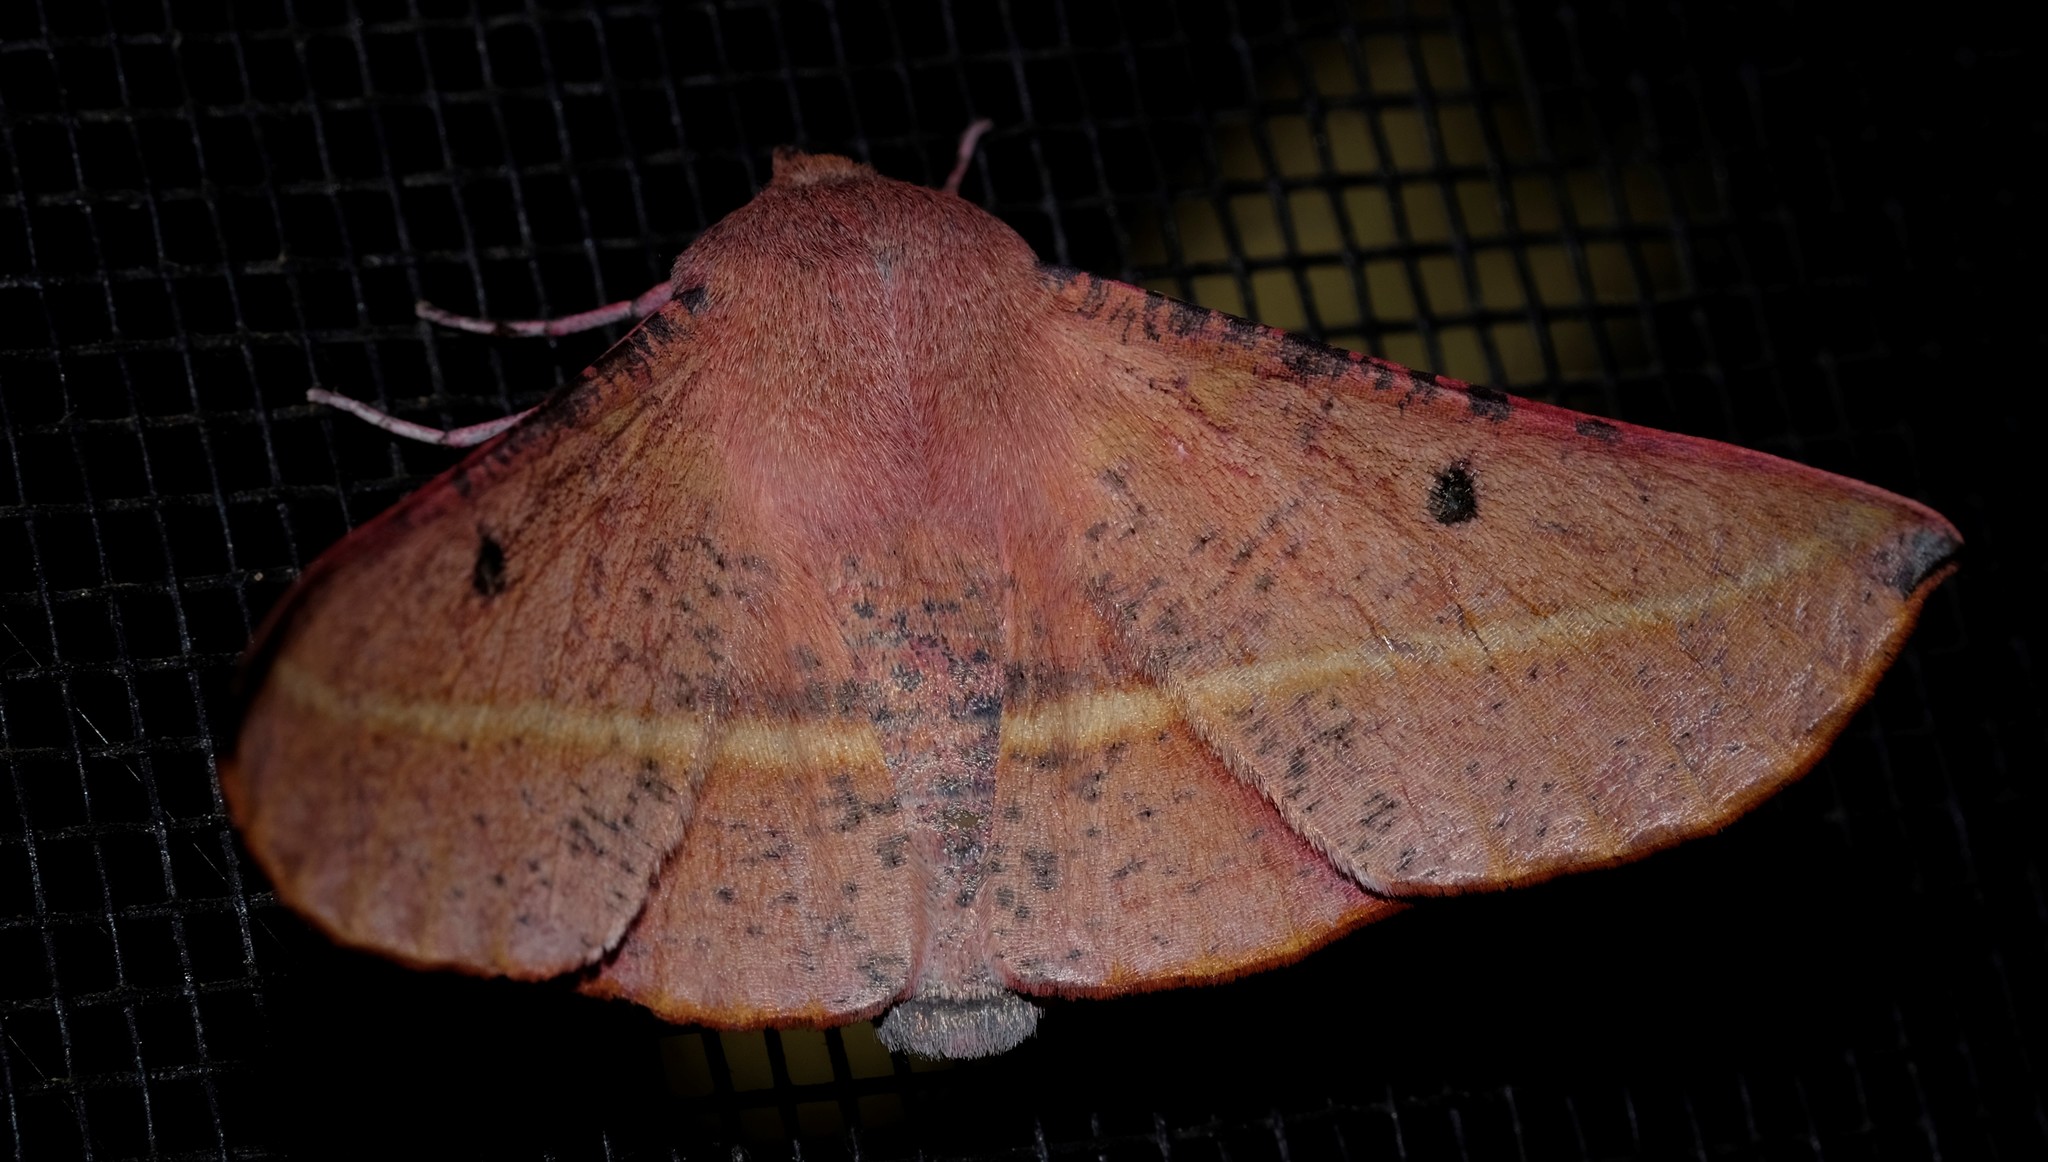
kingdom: Animalia
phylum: Arthropoda
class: Insecta
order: Lepidoptera
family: Geometridae
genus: Oenochroma
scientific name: Oenochroma vinaria
